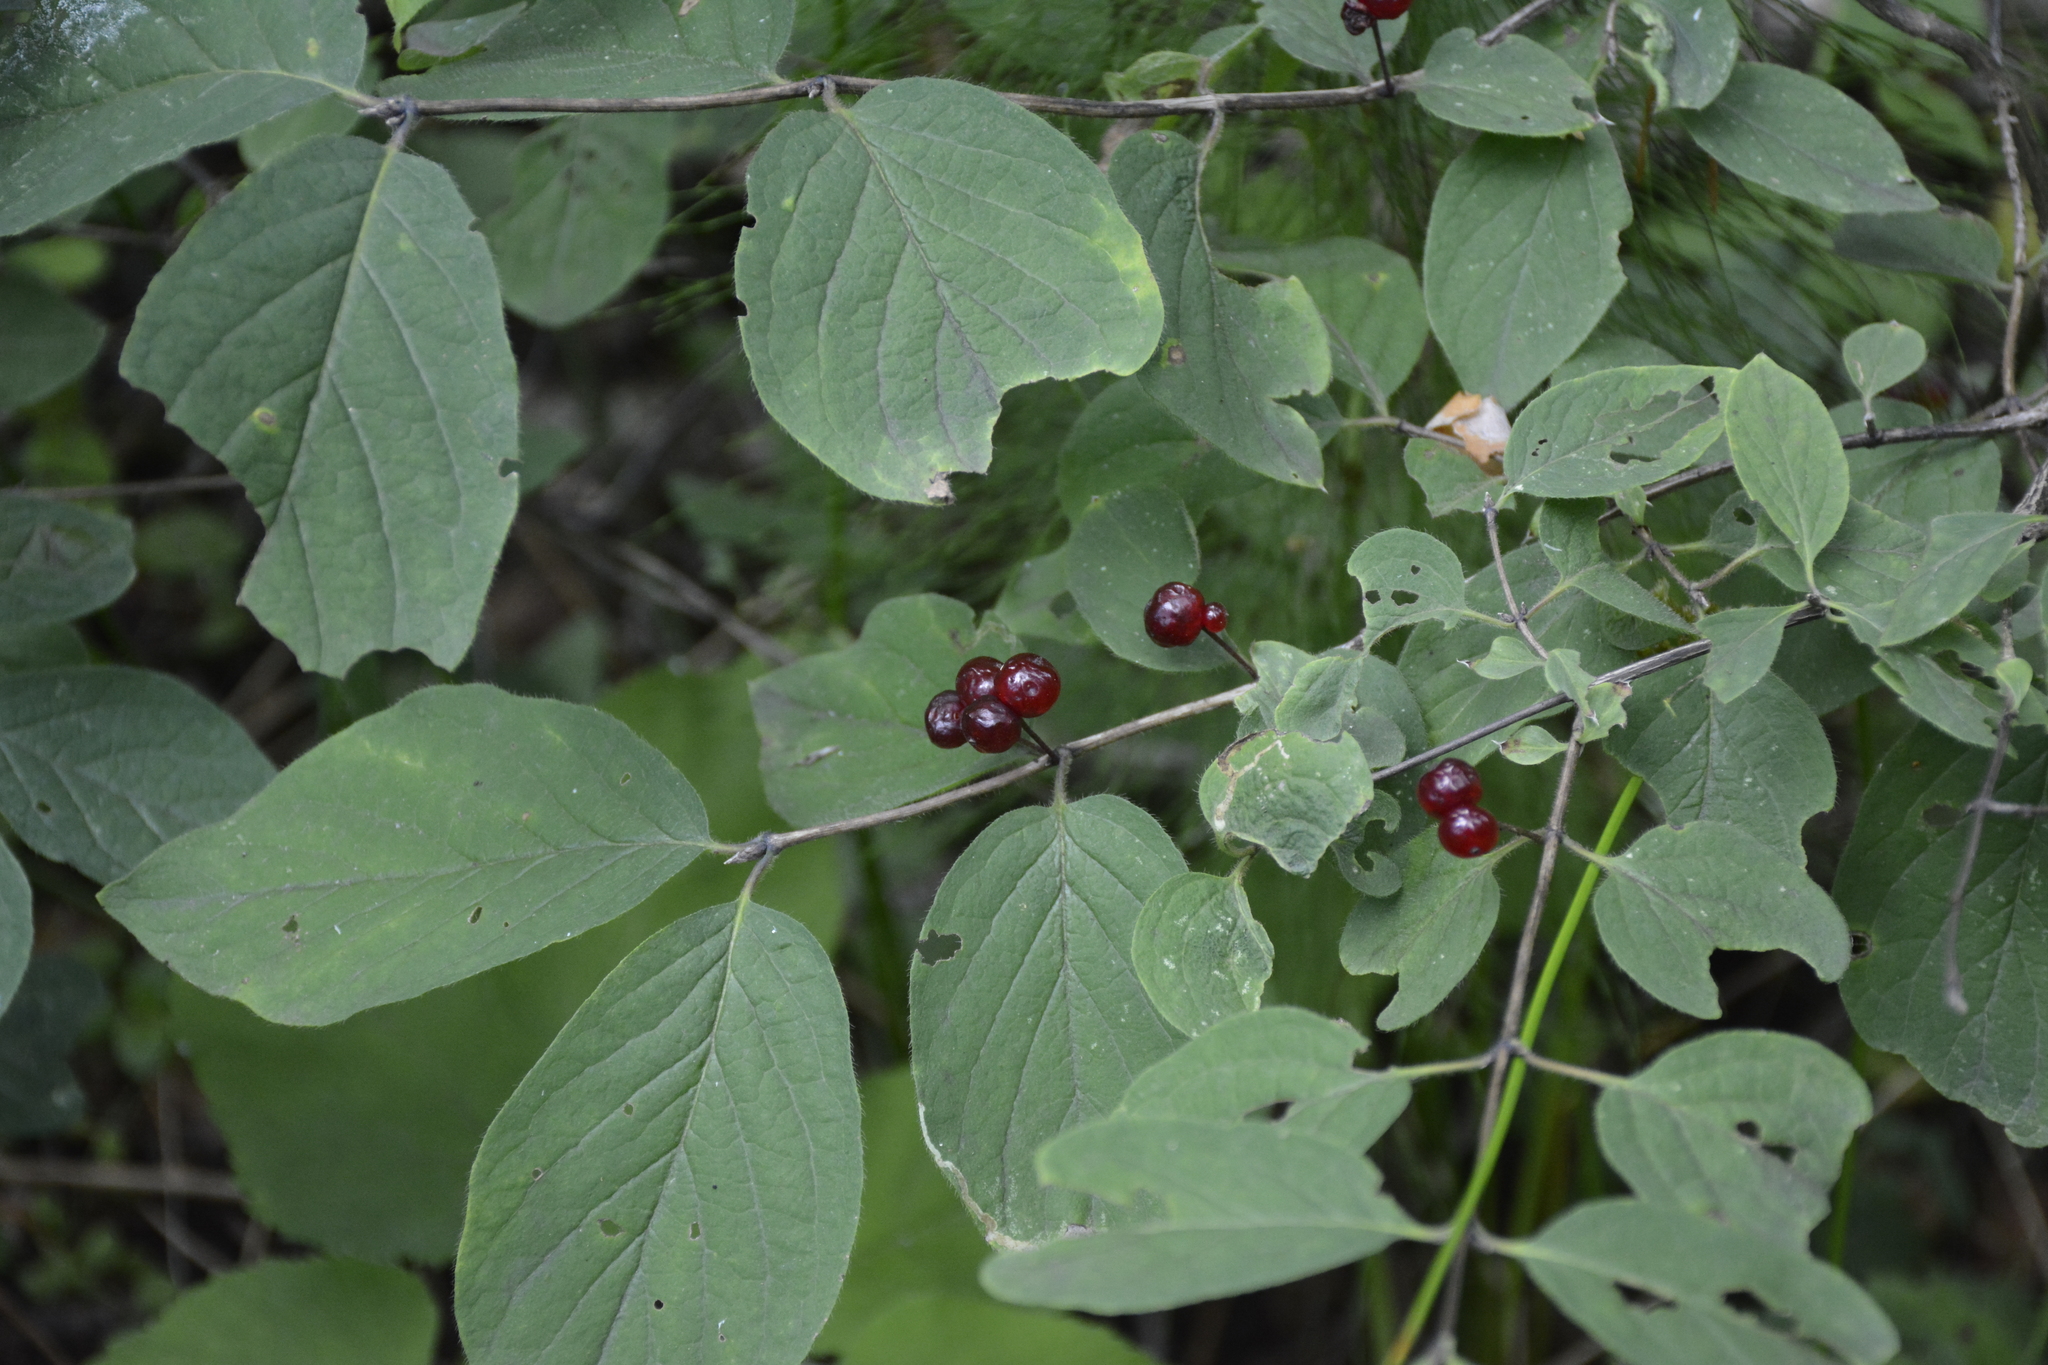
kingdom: Plantae
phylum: Tracheophyta
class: Magnoliopsida
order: Dipsacales
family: Caprifoliaceae
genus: Lonicera
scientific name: Lonicera xylosteum
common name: Fly honeysuckle
